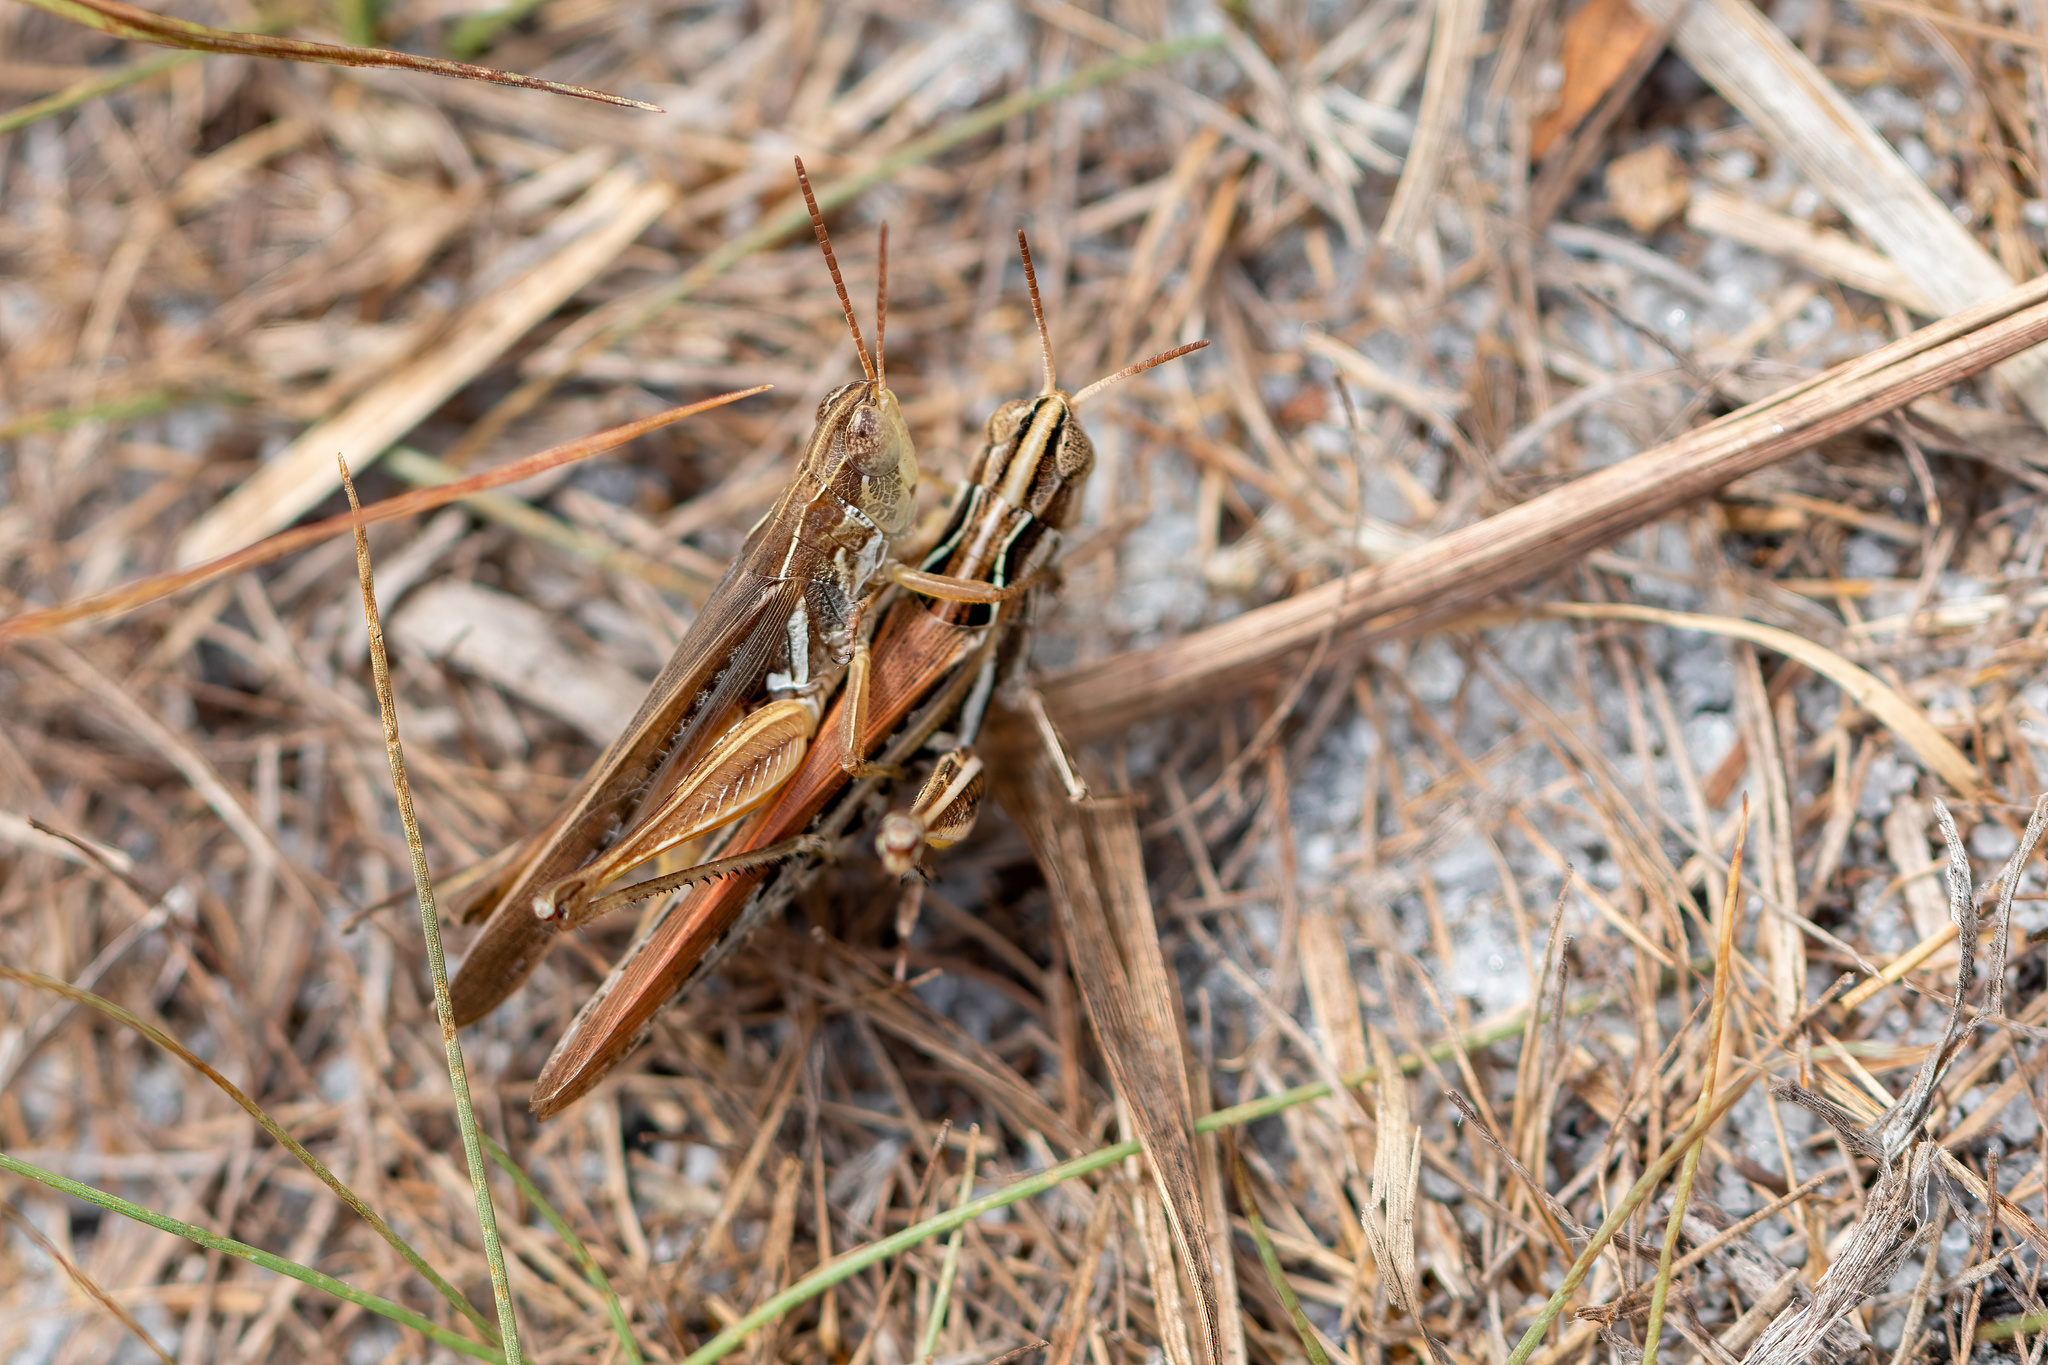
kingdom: Animalia
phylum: Arthropoda
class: Insecta
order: Orthoptera
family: Acrididae
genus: Orphulella
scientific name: Orphulella pelidna
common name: Spotted-wing grasshopper
